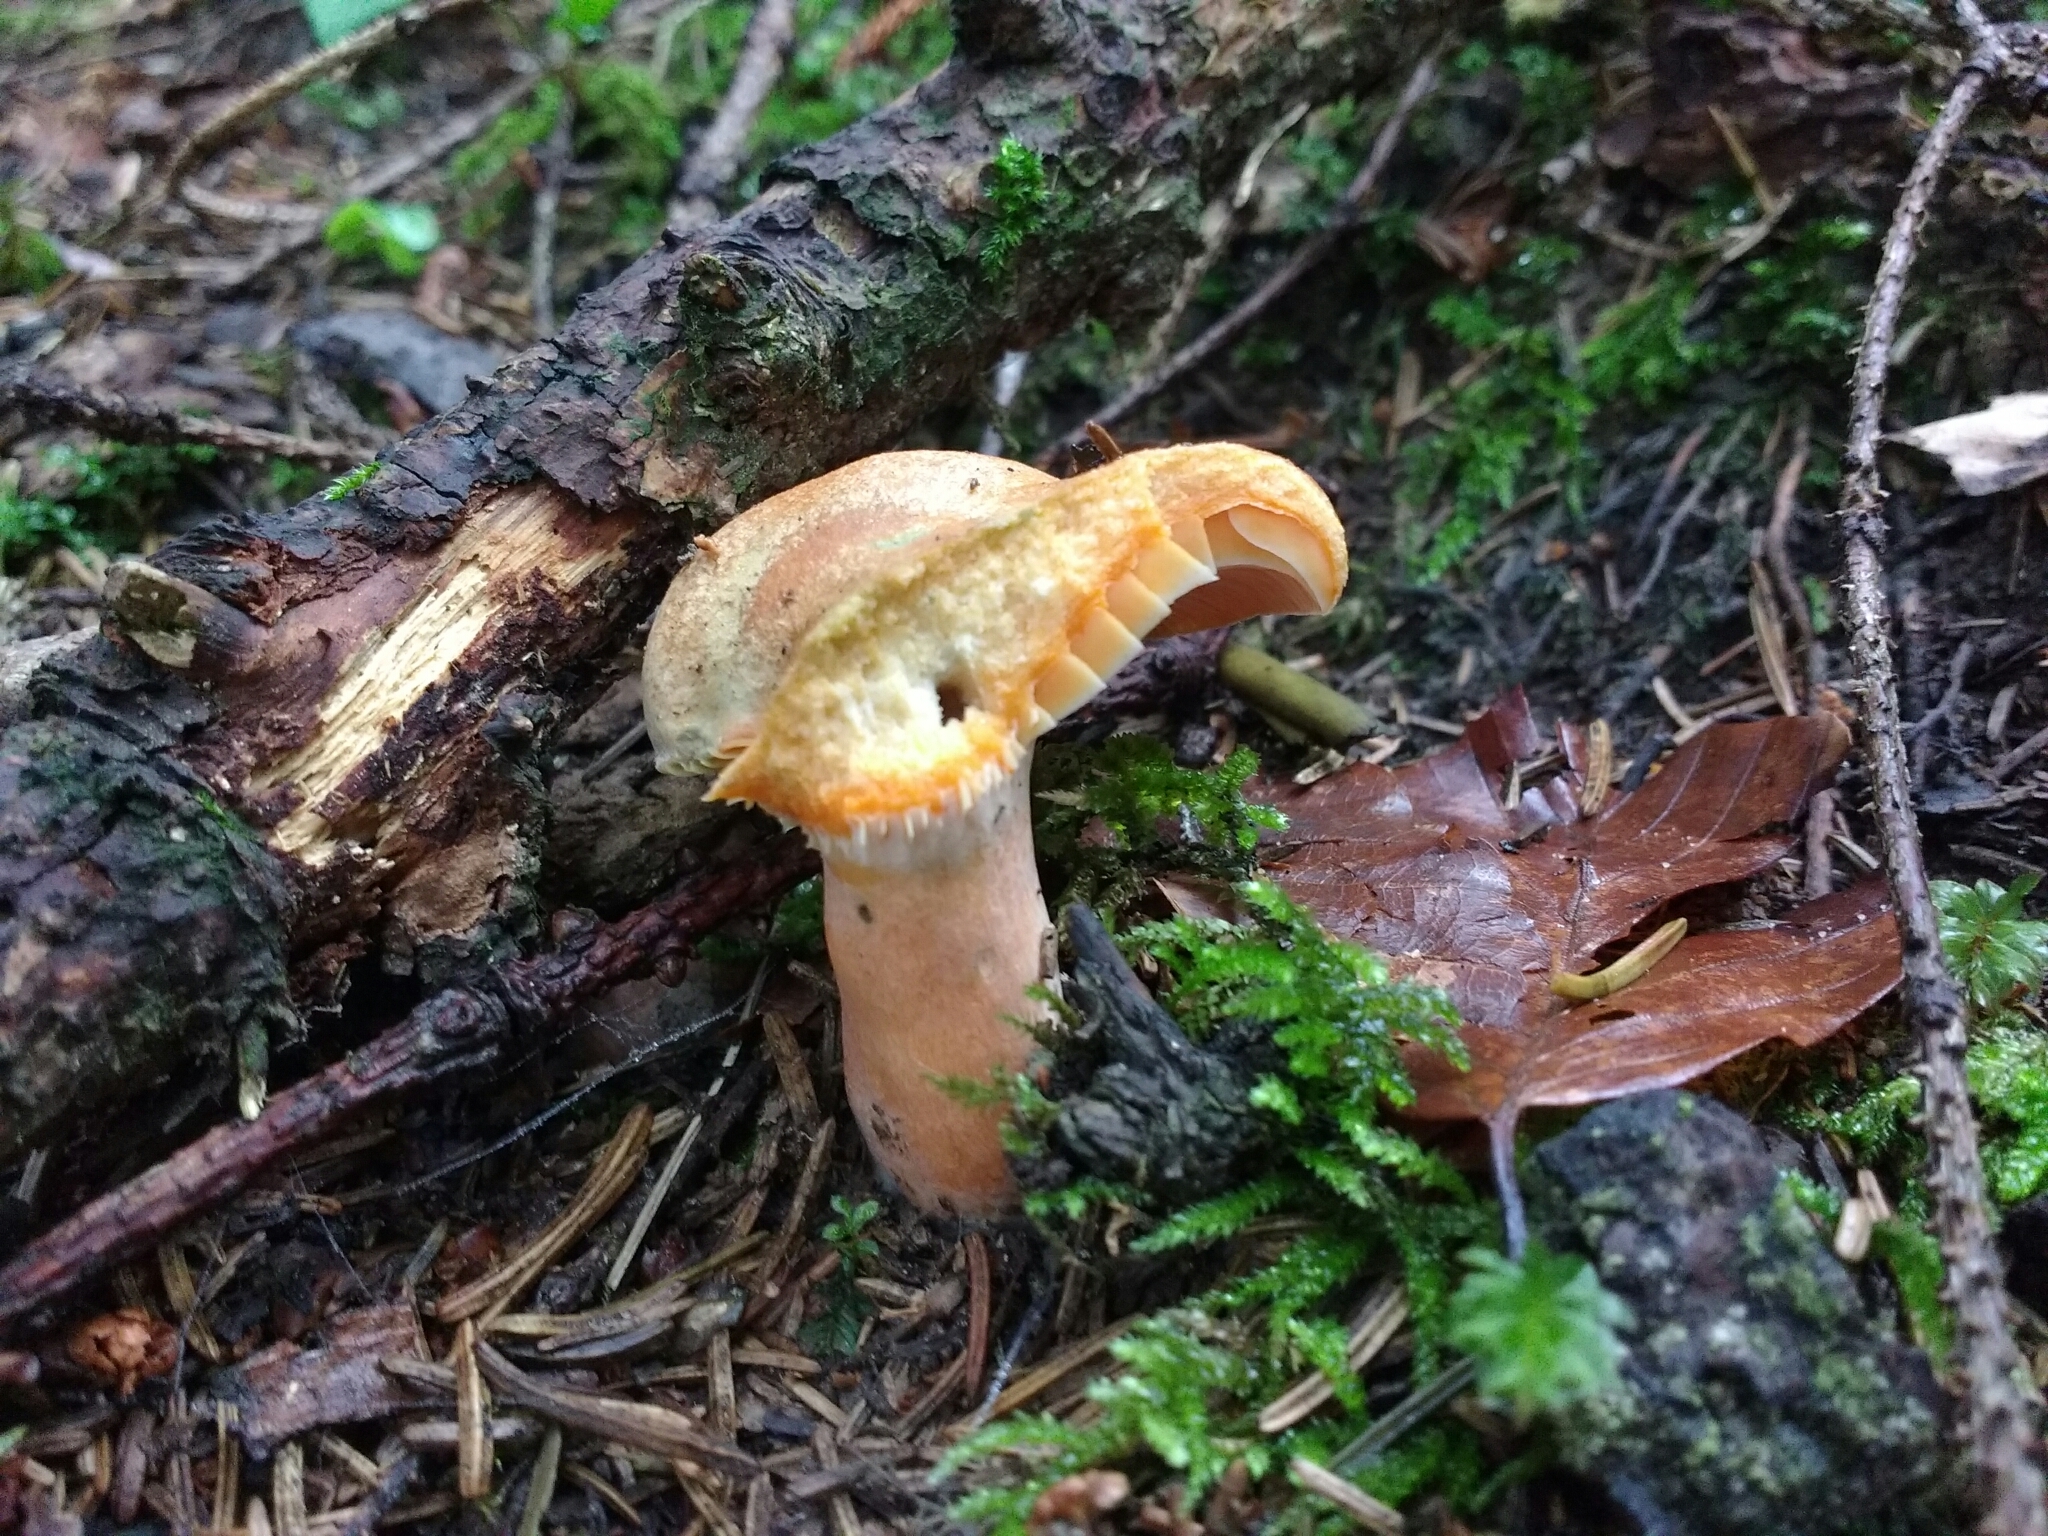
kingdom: Fungi
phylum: Basidiomycota
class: Agaricomycetes
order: Russulales
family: Russulaceae
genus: Lactarius
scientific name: Lactarius deterrimus
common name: False saffron milkcap
